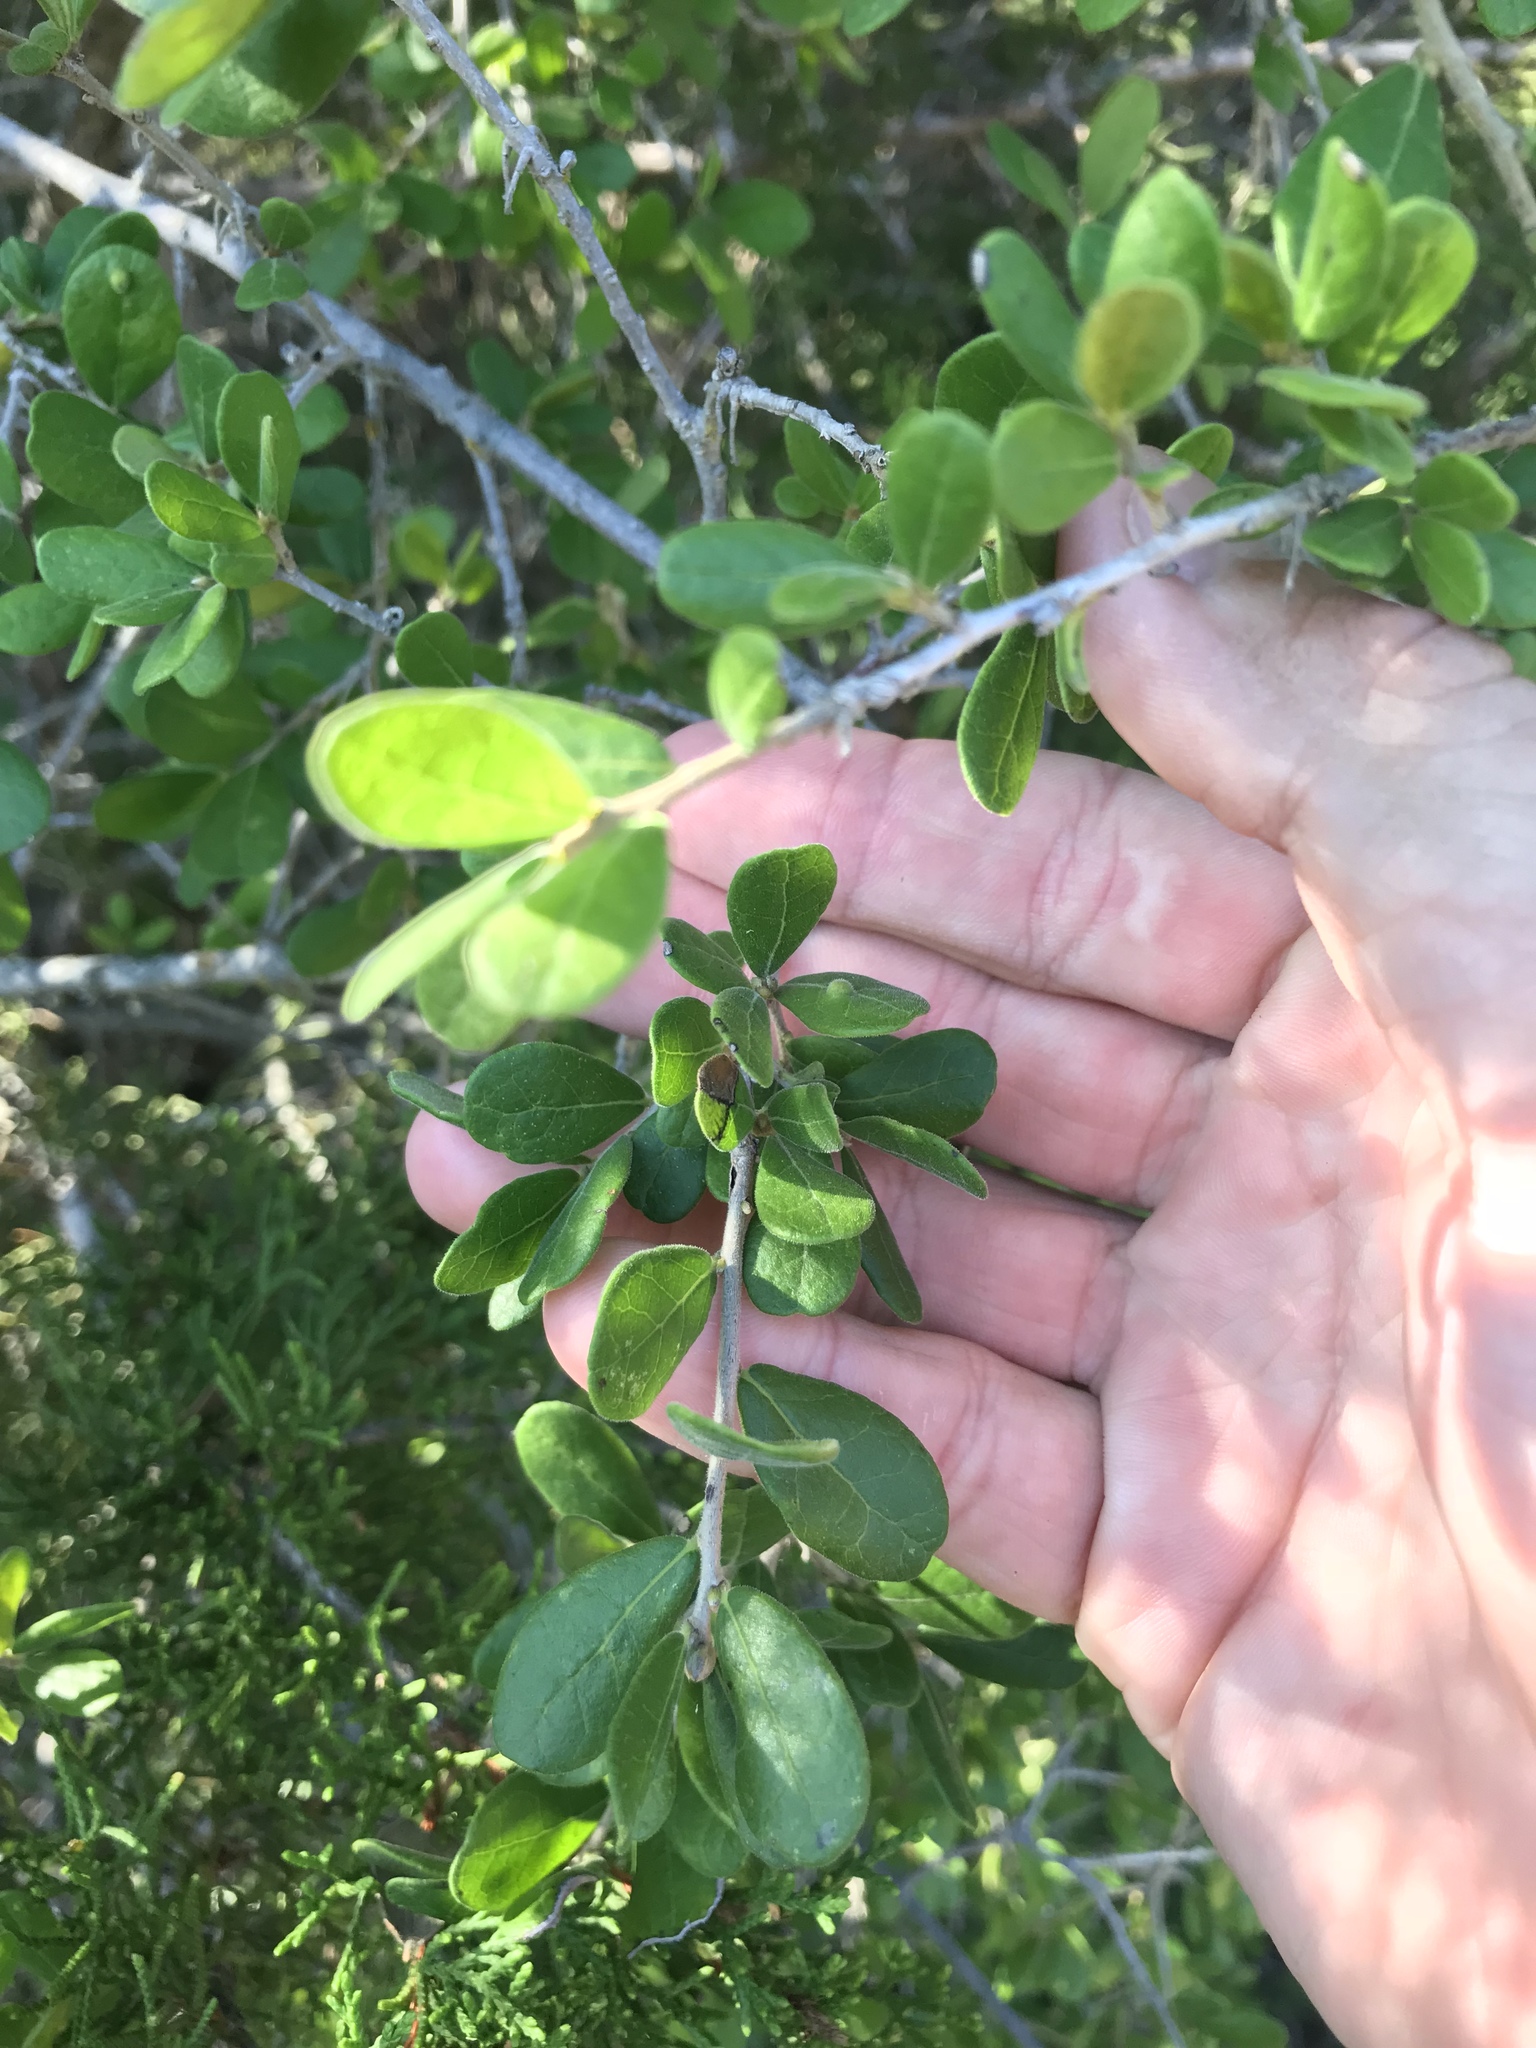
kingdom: Plantae
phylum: Tracheophyta
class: Magnoliopsida
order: Ericales
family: Ebenaceae
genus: Diospyros
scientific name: Diospyros texana
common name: Texas persimmon
